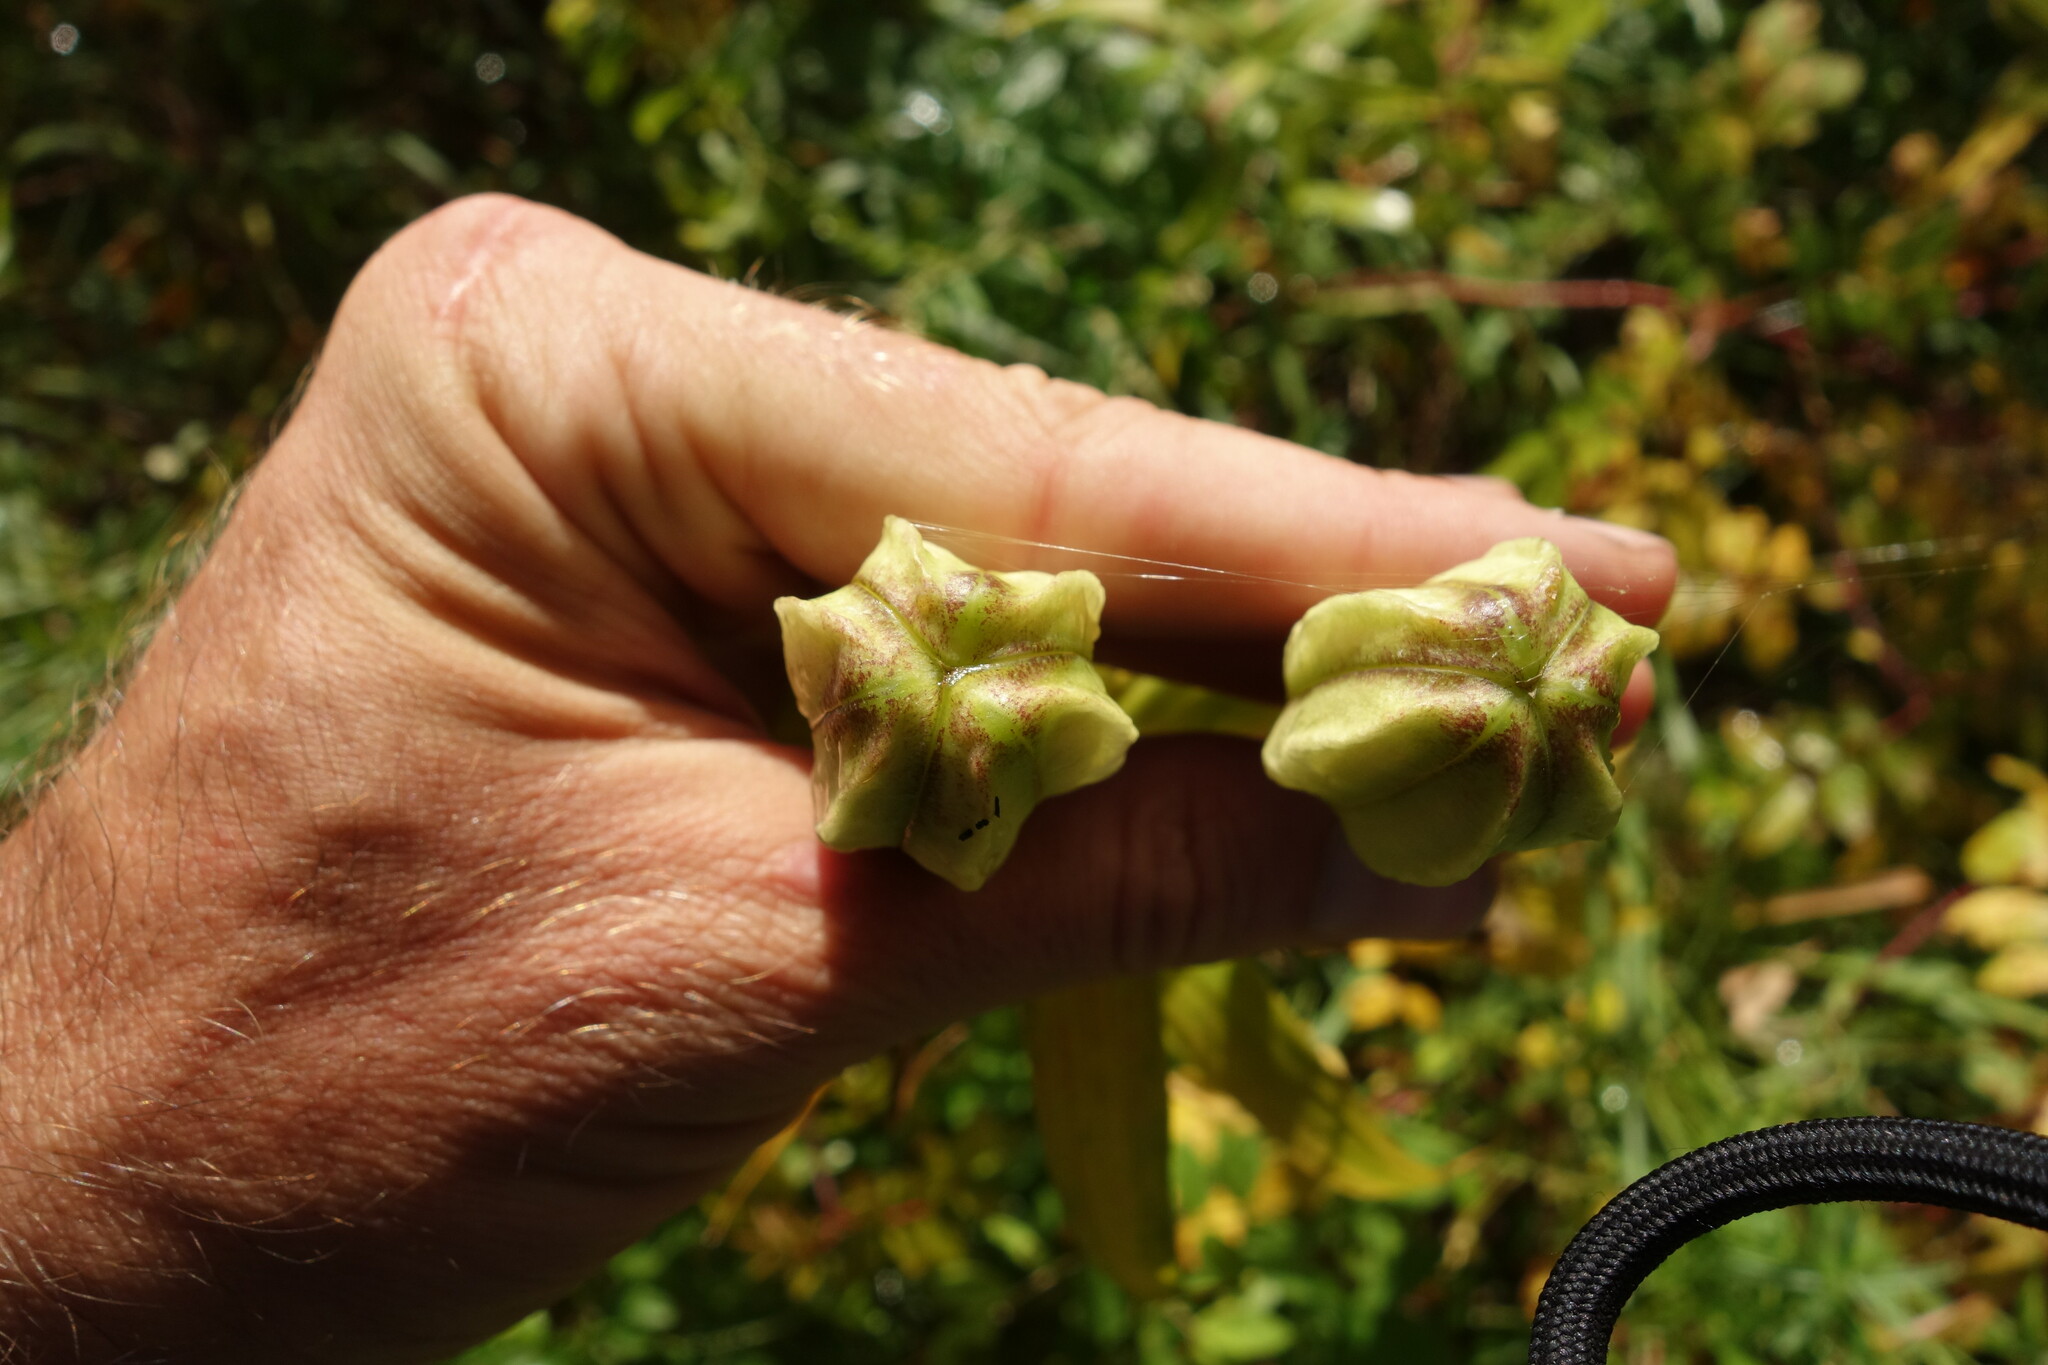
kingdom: Plantae
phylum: Tracheophyta
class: Liliopsida
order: Liliales
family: Liliaceae
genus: Lilium
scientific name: Lilium pensylvanicum
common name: Candlestick lily
